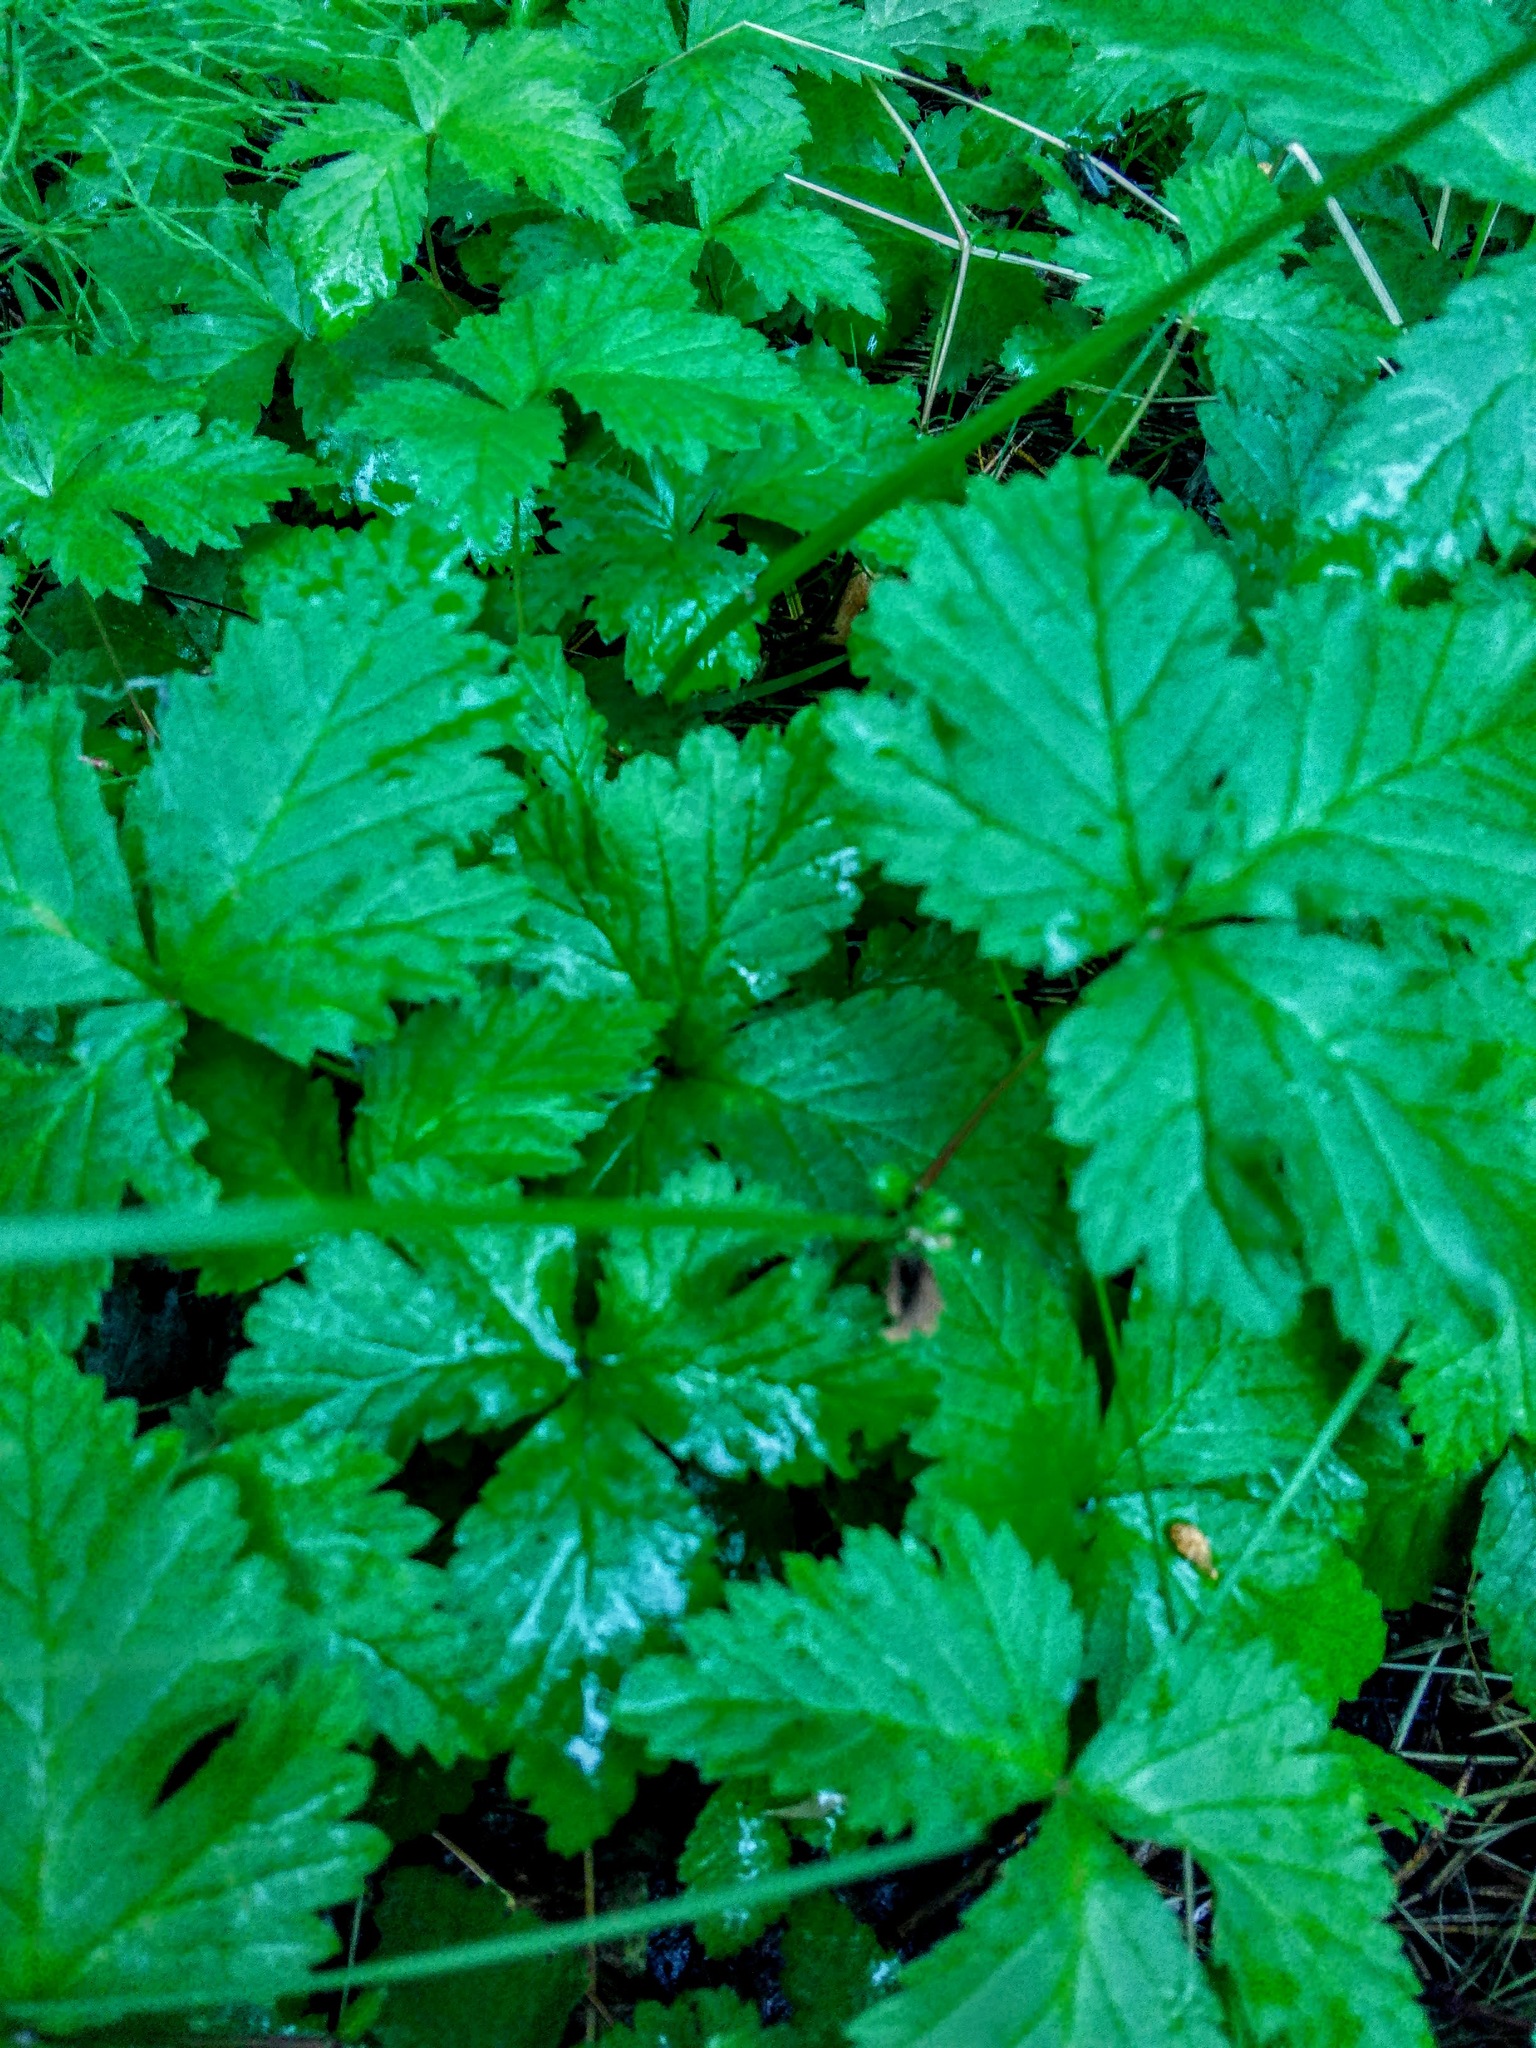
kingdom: Plantae
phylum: Tracheophyta
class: Magnoliopsida
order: Rosales
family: Rosaceae
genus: Rubus
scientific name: Rubus saxatilis
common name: Stone bramble
